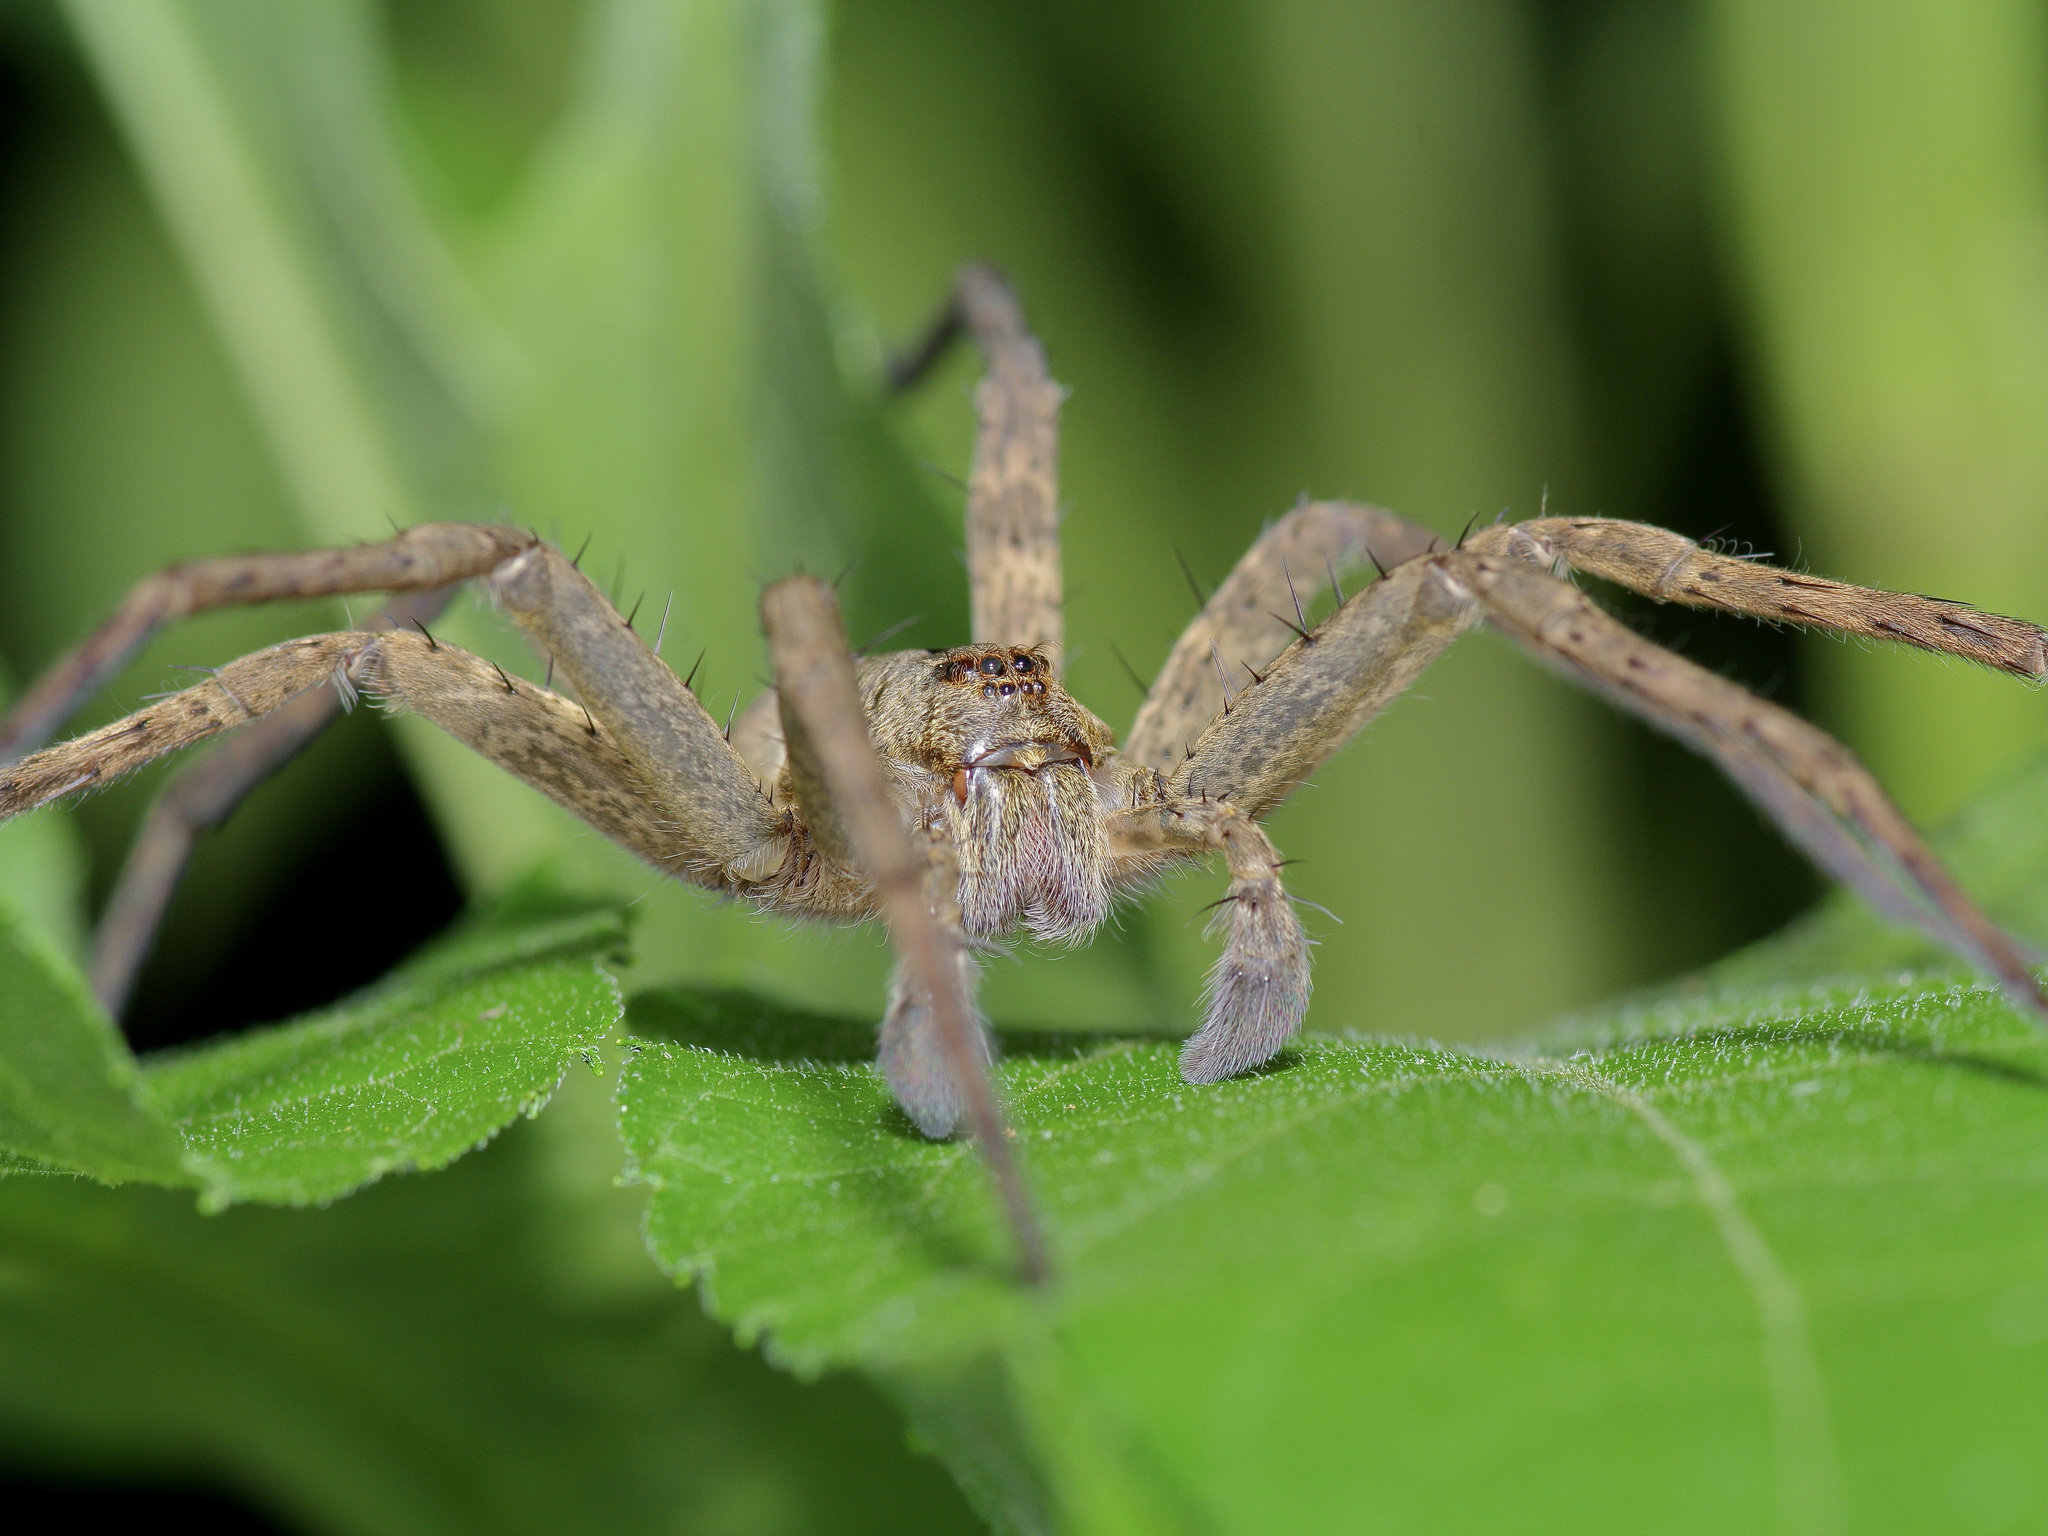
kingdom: Animalia
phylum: Arthropoda
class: Arachnida
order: Araneae
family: Pisauridae
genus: Dolomedes
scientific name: Dolomedes vittatus
